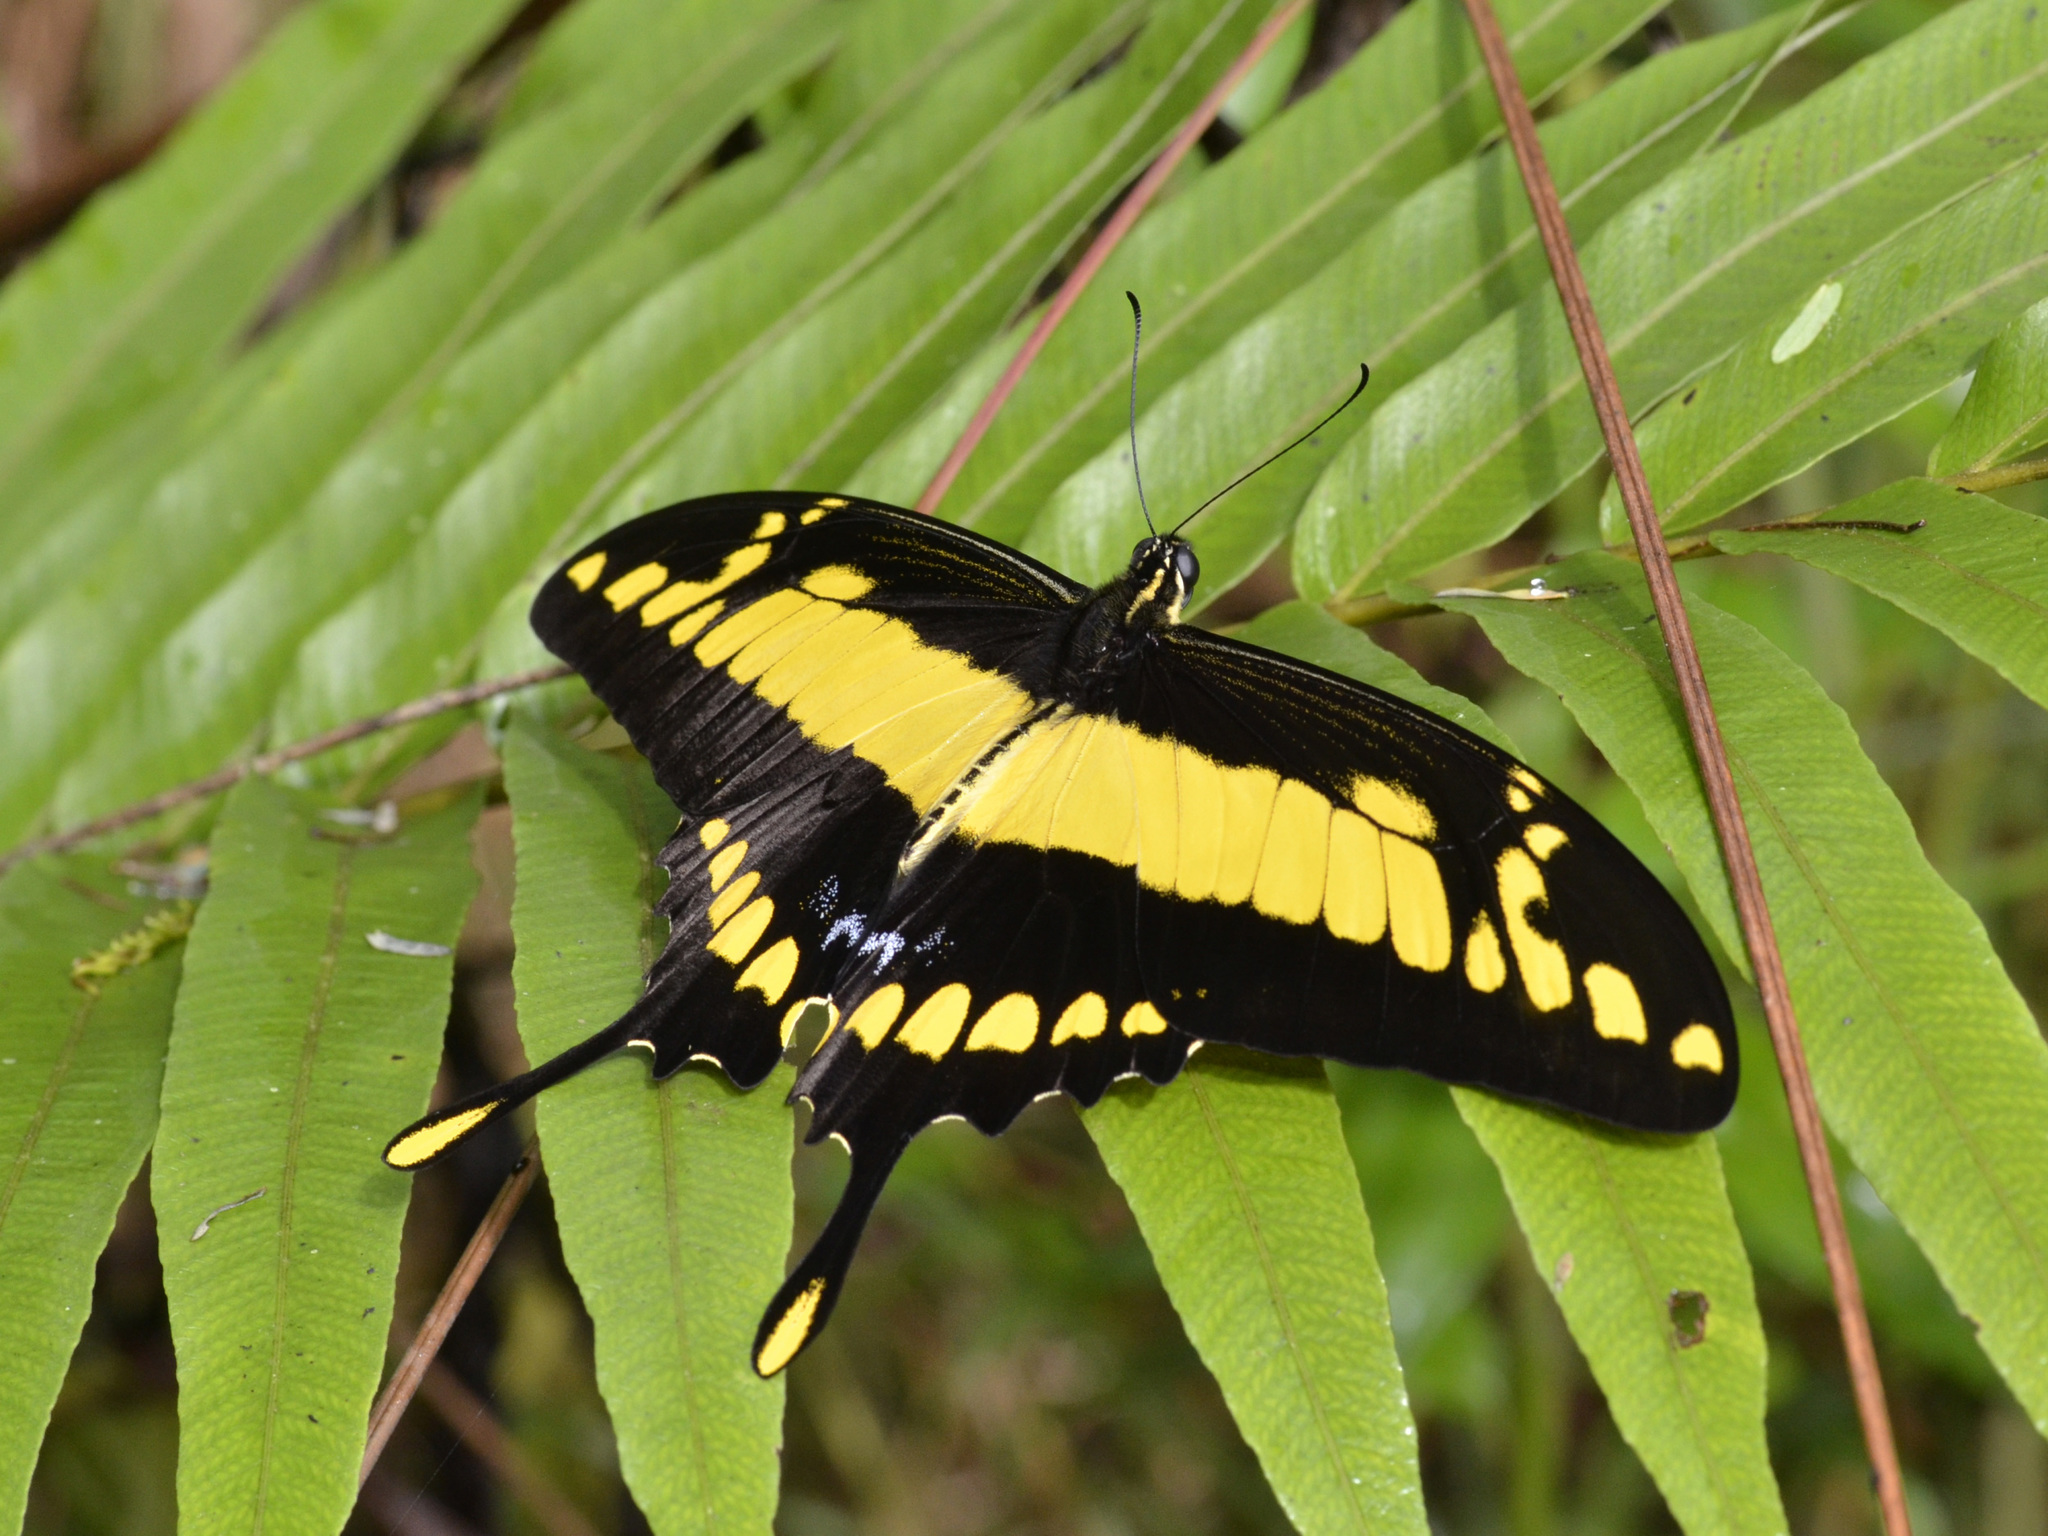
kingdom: Animalia
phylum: Arthropoda
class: Insecta
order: Lepidoptera
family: Papilionidae
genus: Papilio
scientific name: Papilio thoas
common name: King swallowtail
